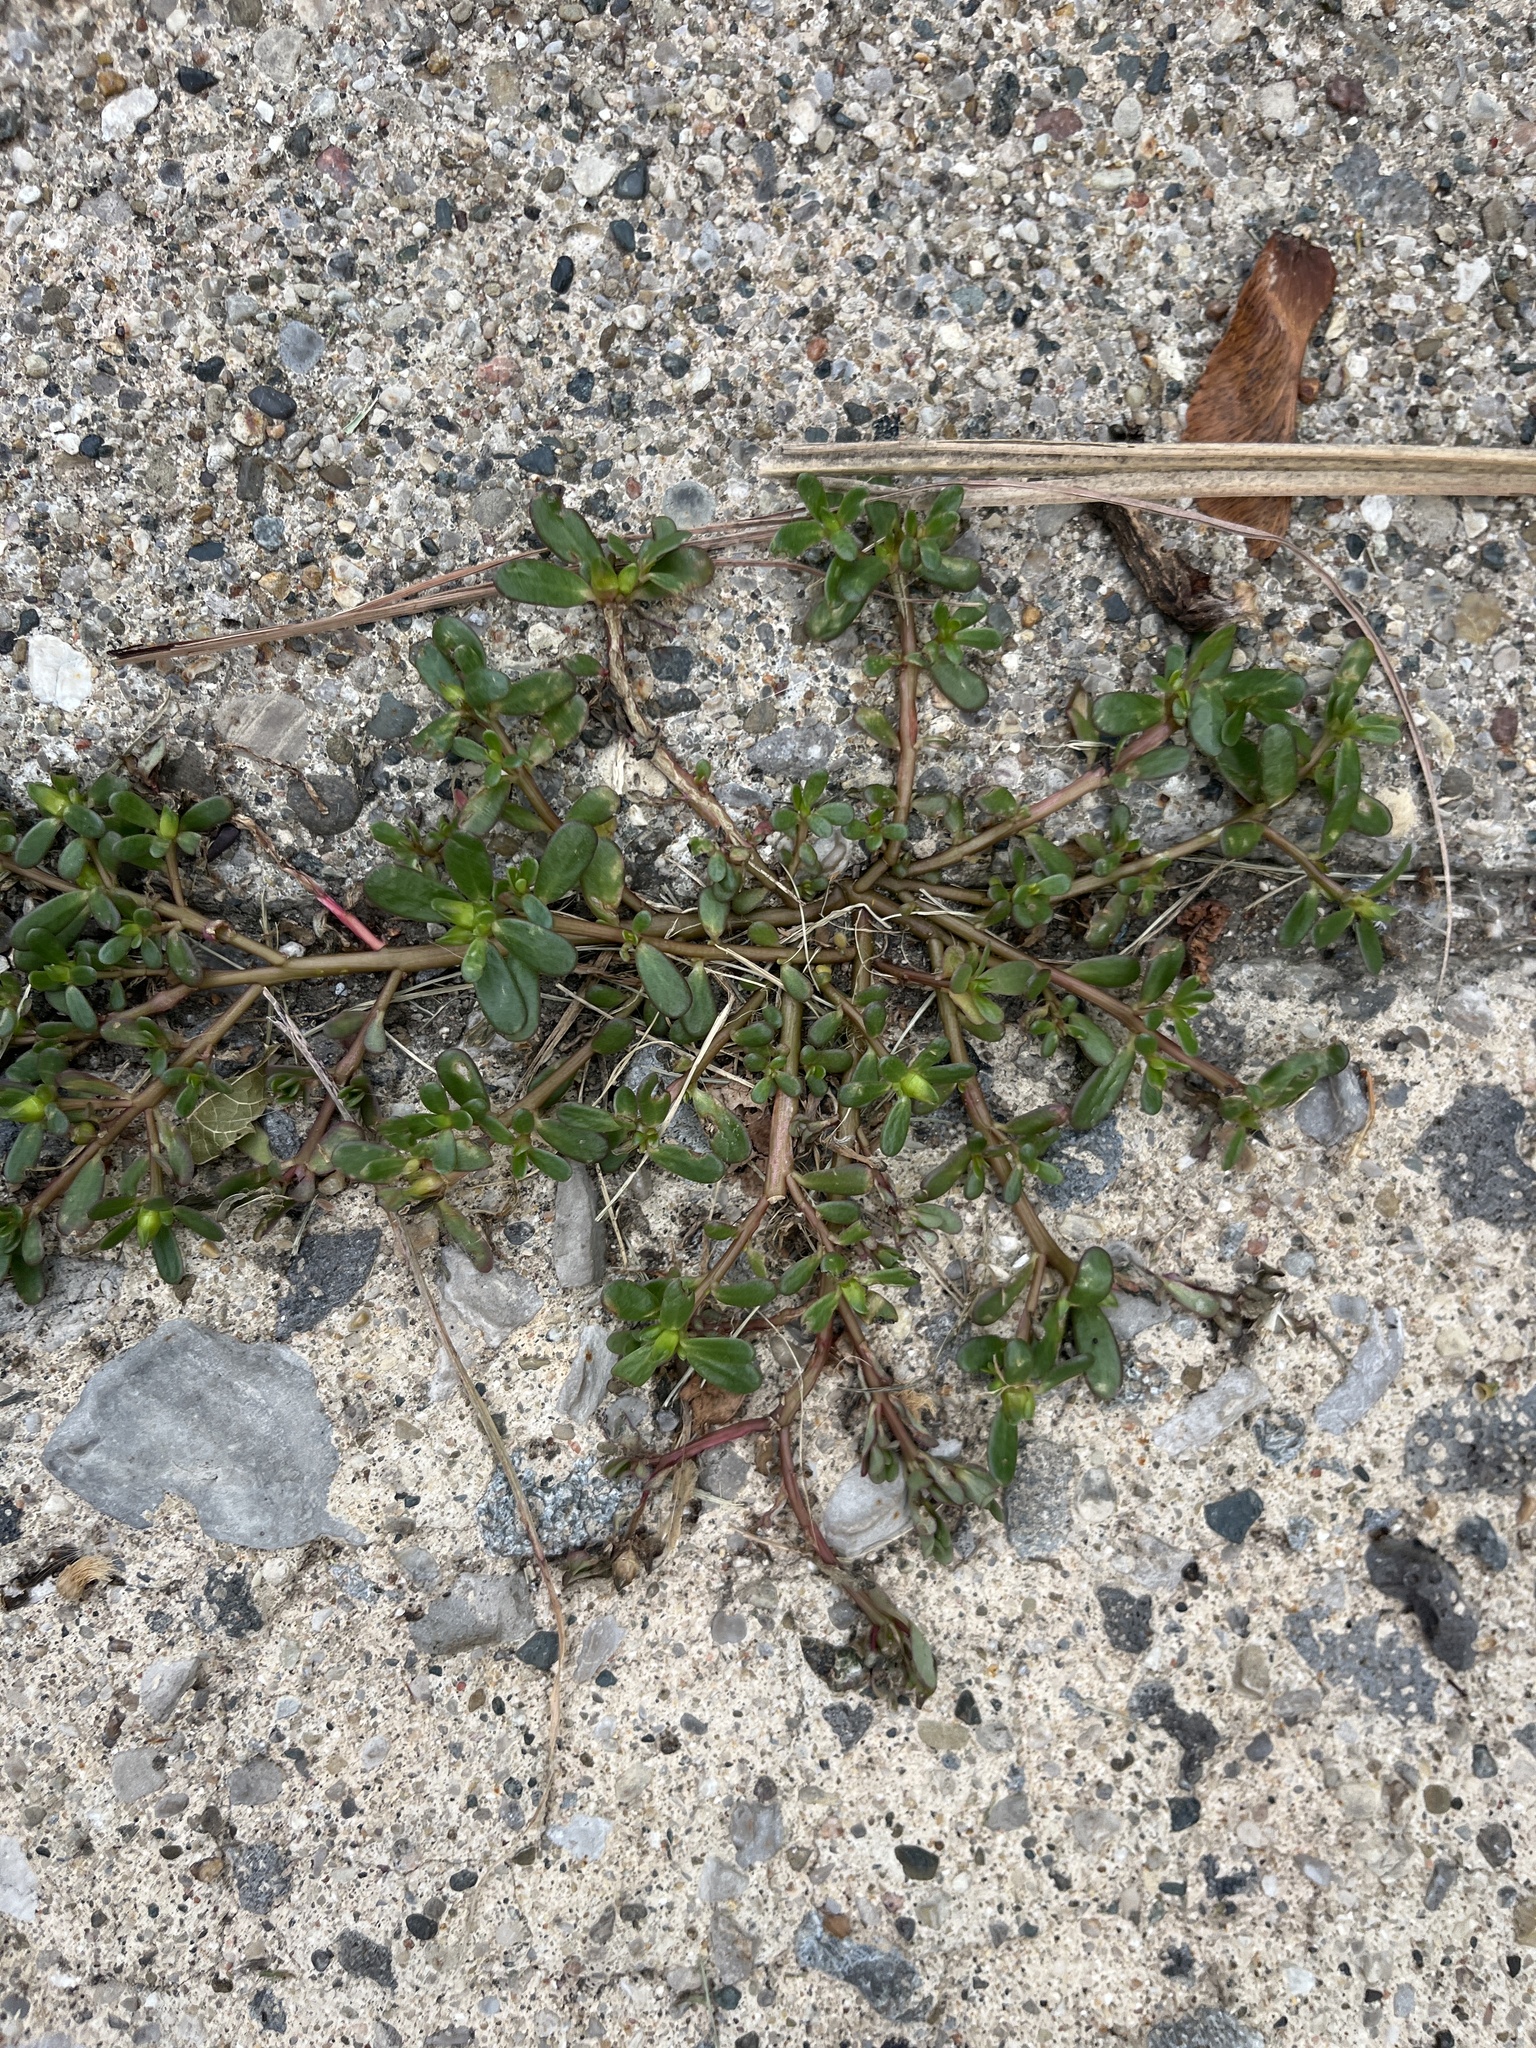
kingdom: Plantae
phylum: Tracheophyta
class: Magnoliopsida
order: Caryophyllales
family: Portulacaceae
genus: Portulaca
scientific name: Portulaca oleracea
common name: Common purslane
